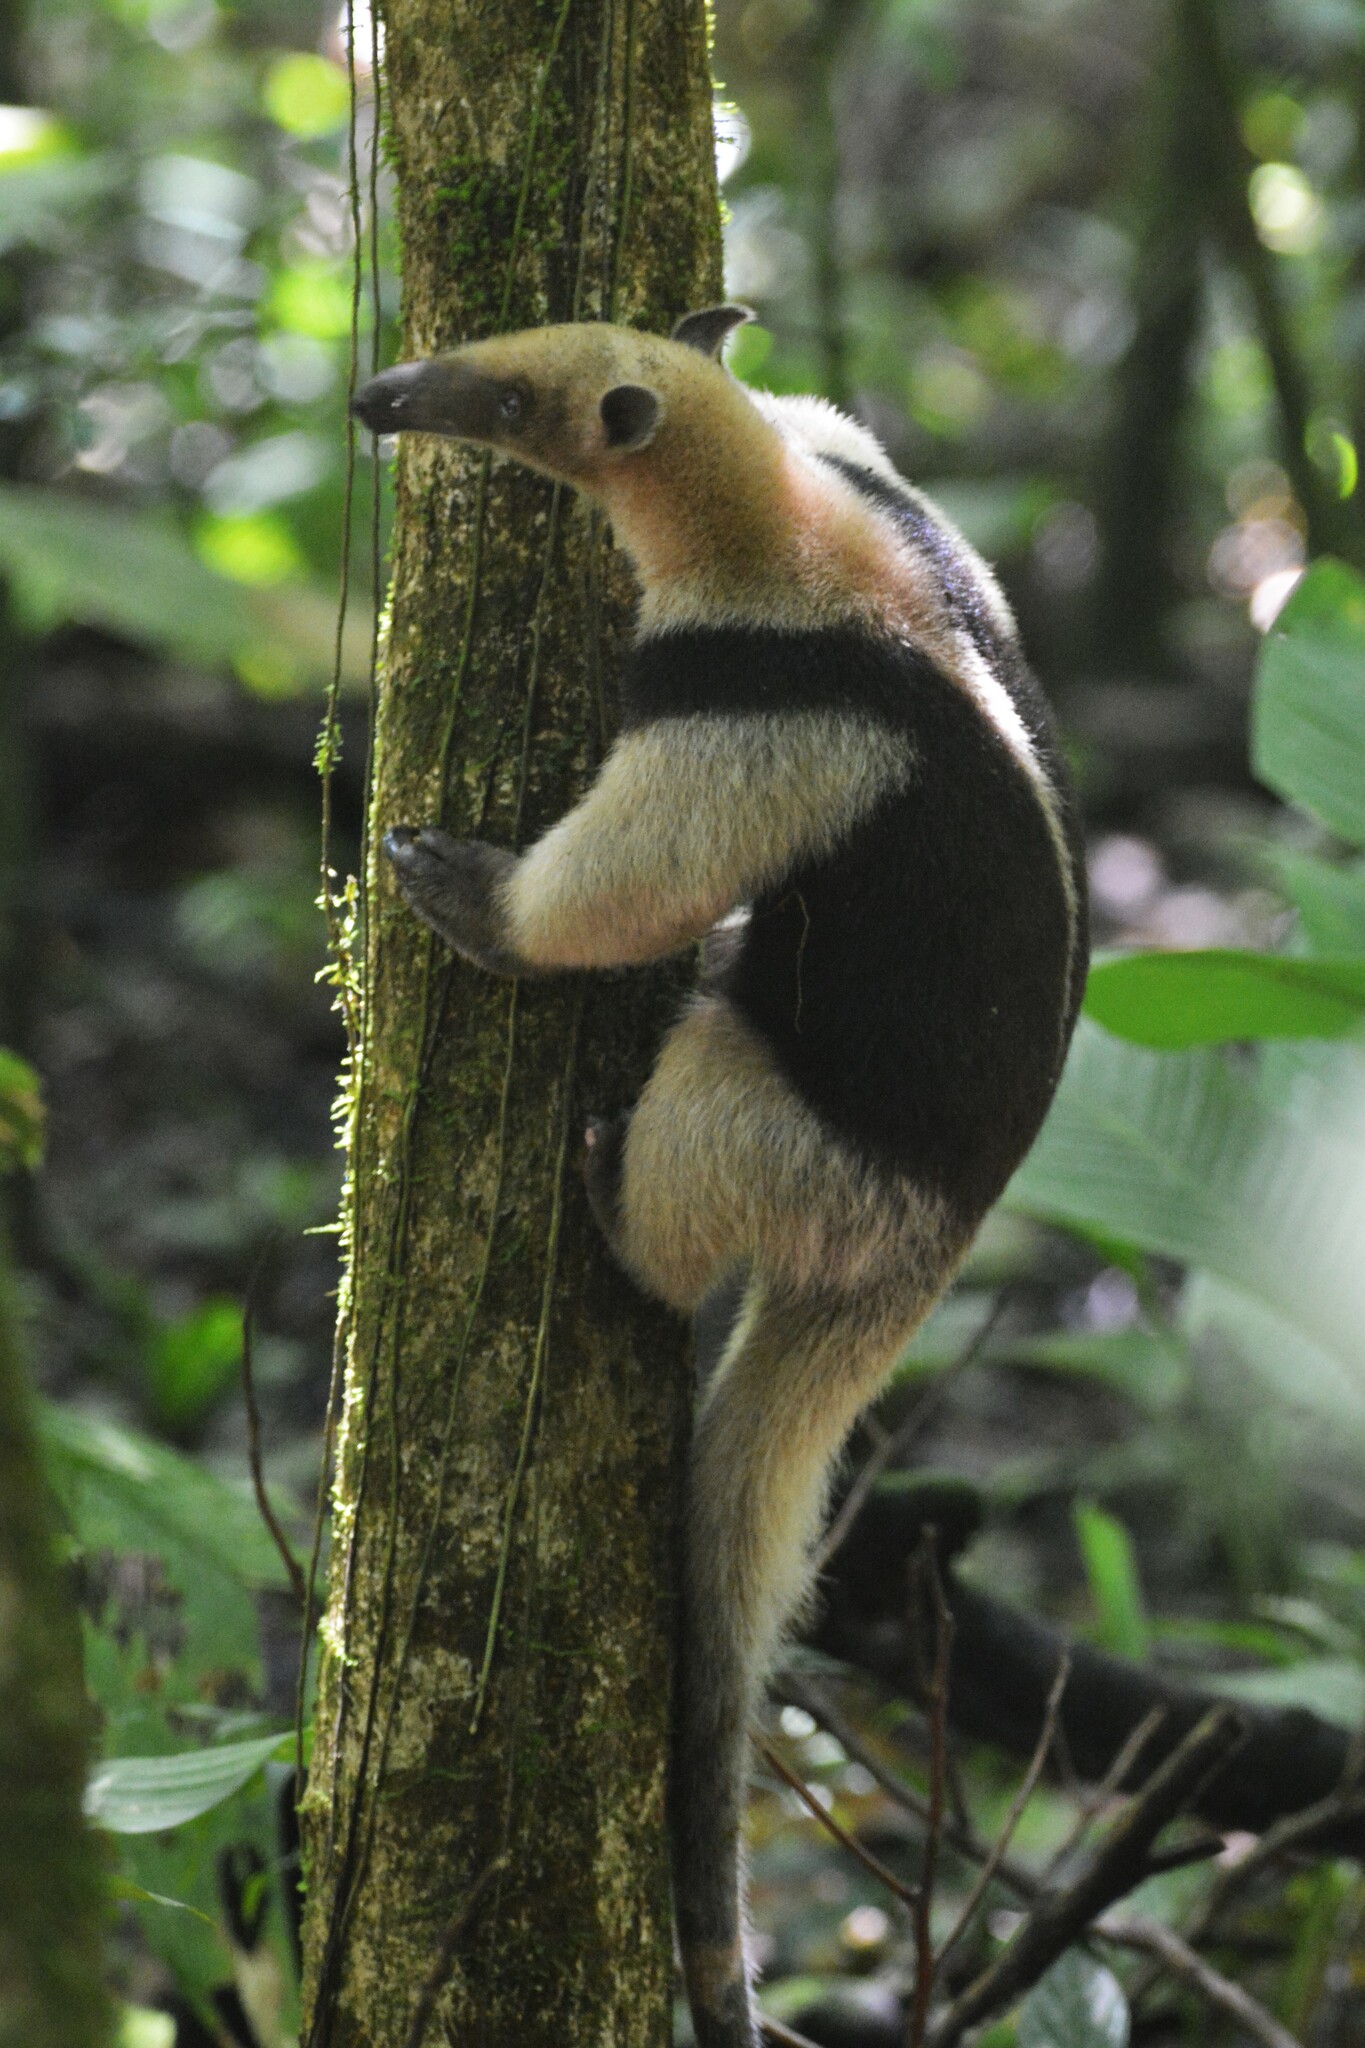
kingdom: Animalia
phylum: Chordata
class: Mammalia
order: Pilosa
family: Myrmecophagidae
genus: Tamandua
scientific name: Tamandua mexicana
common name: Northern tamandua
